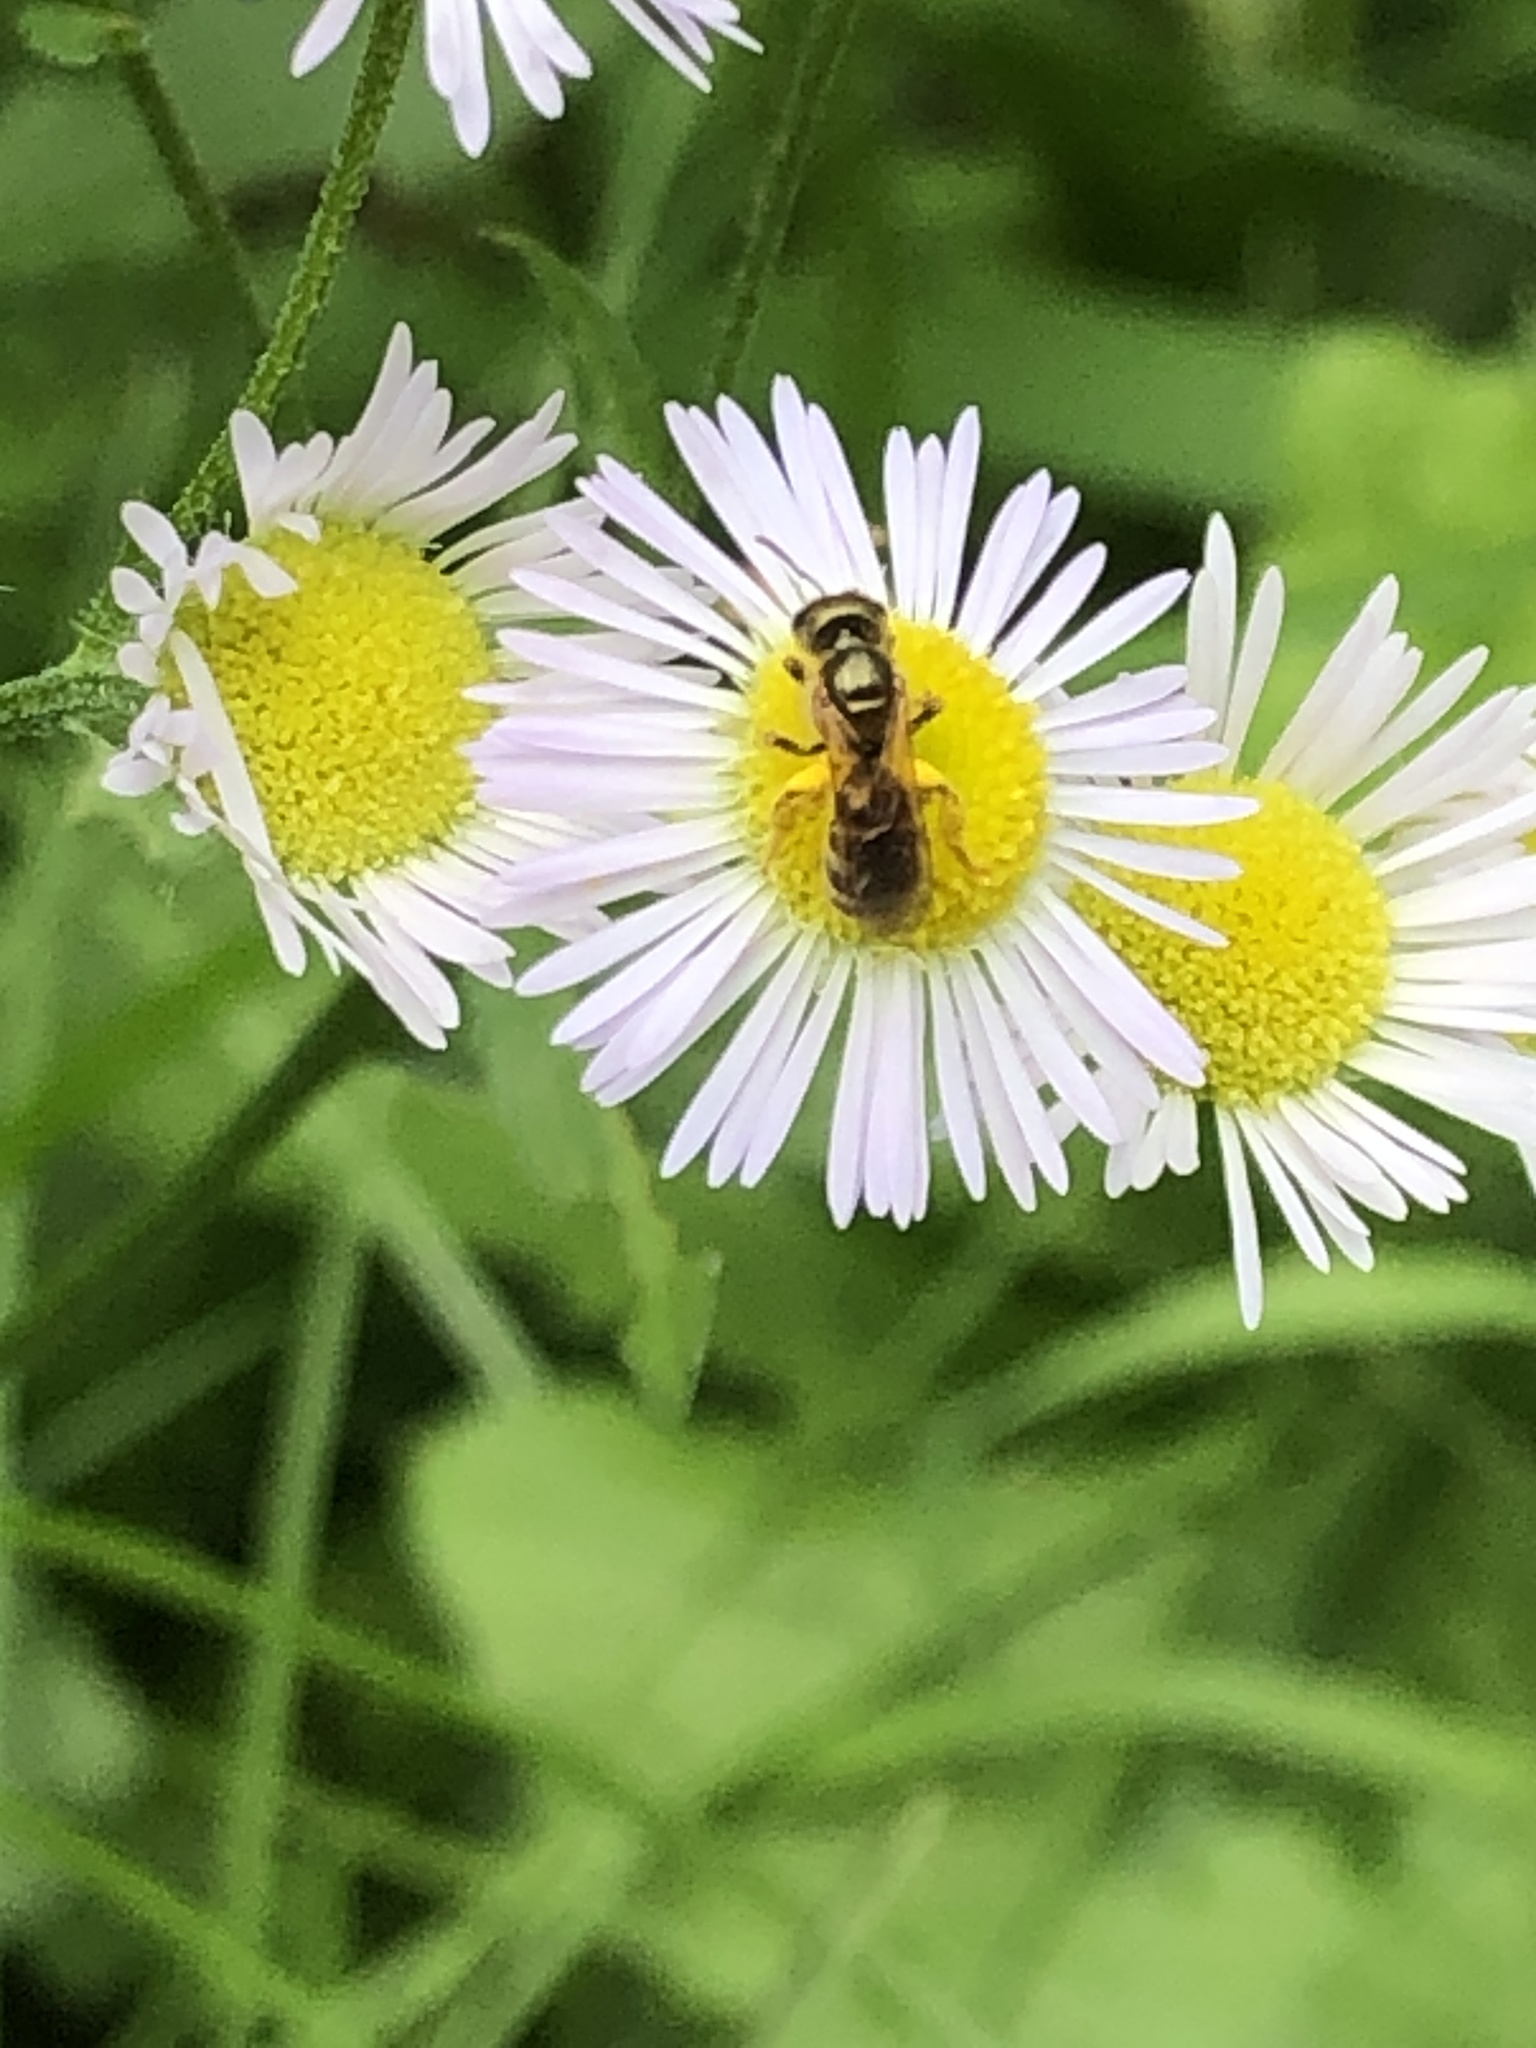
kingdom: Animalia
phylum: Arthropoda
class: Insecta
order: Hymenoptera
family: Halictidae
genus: Halictus
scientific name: Halictus aerarius
